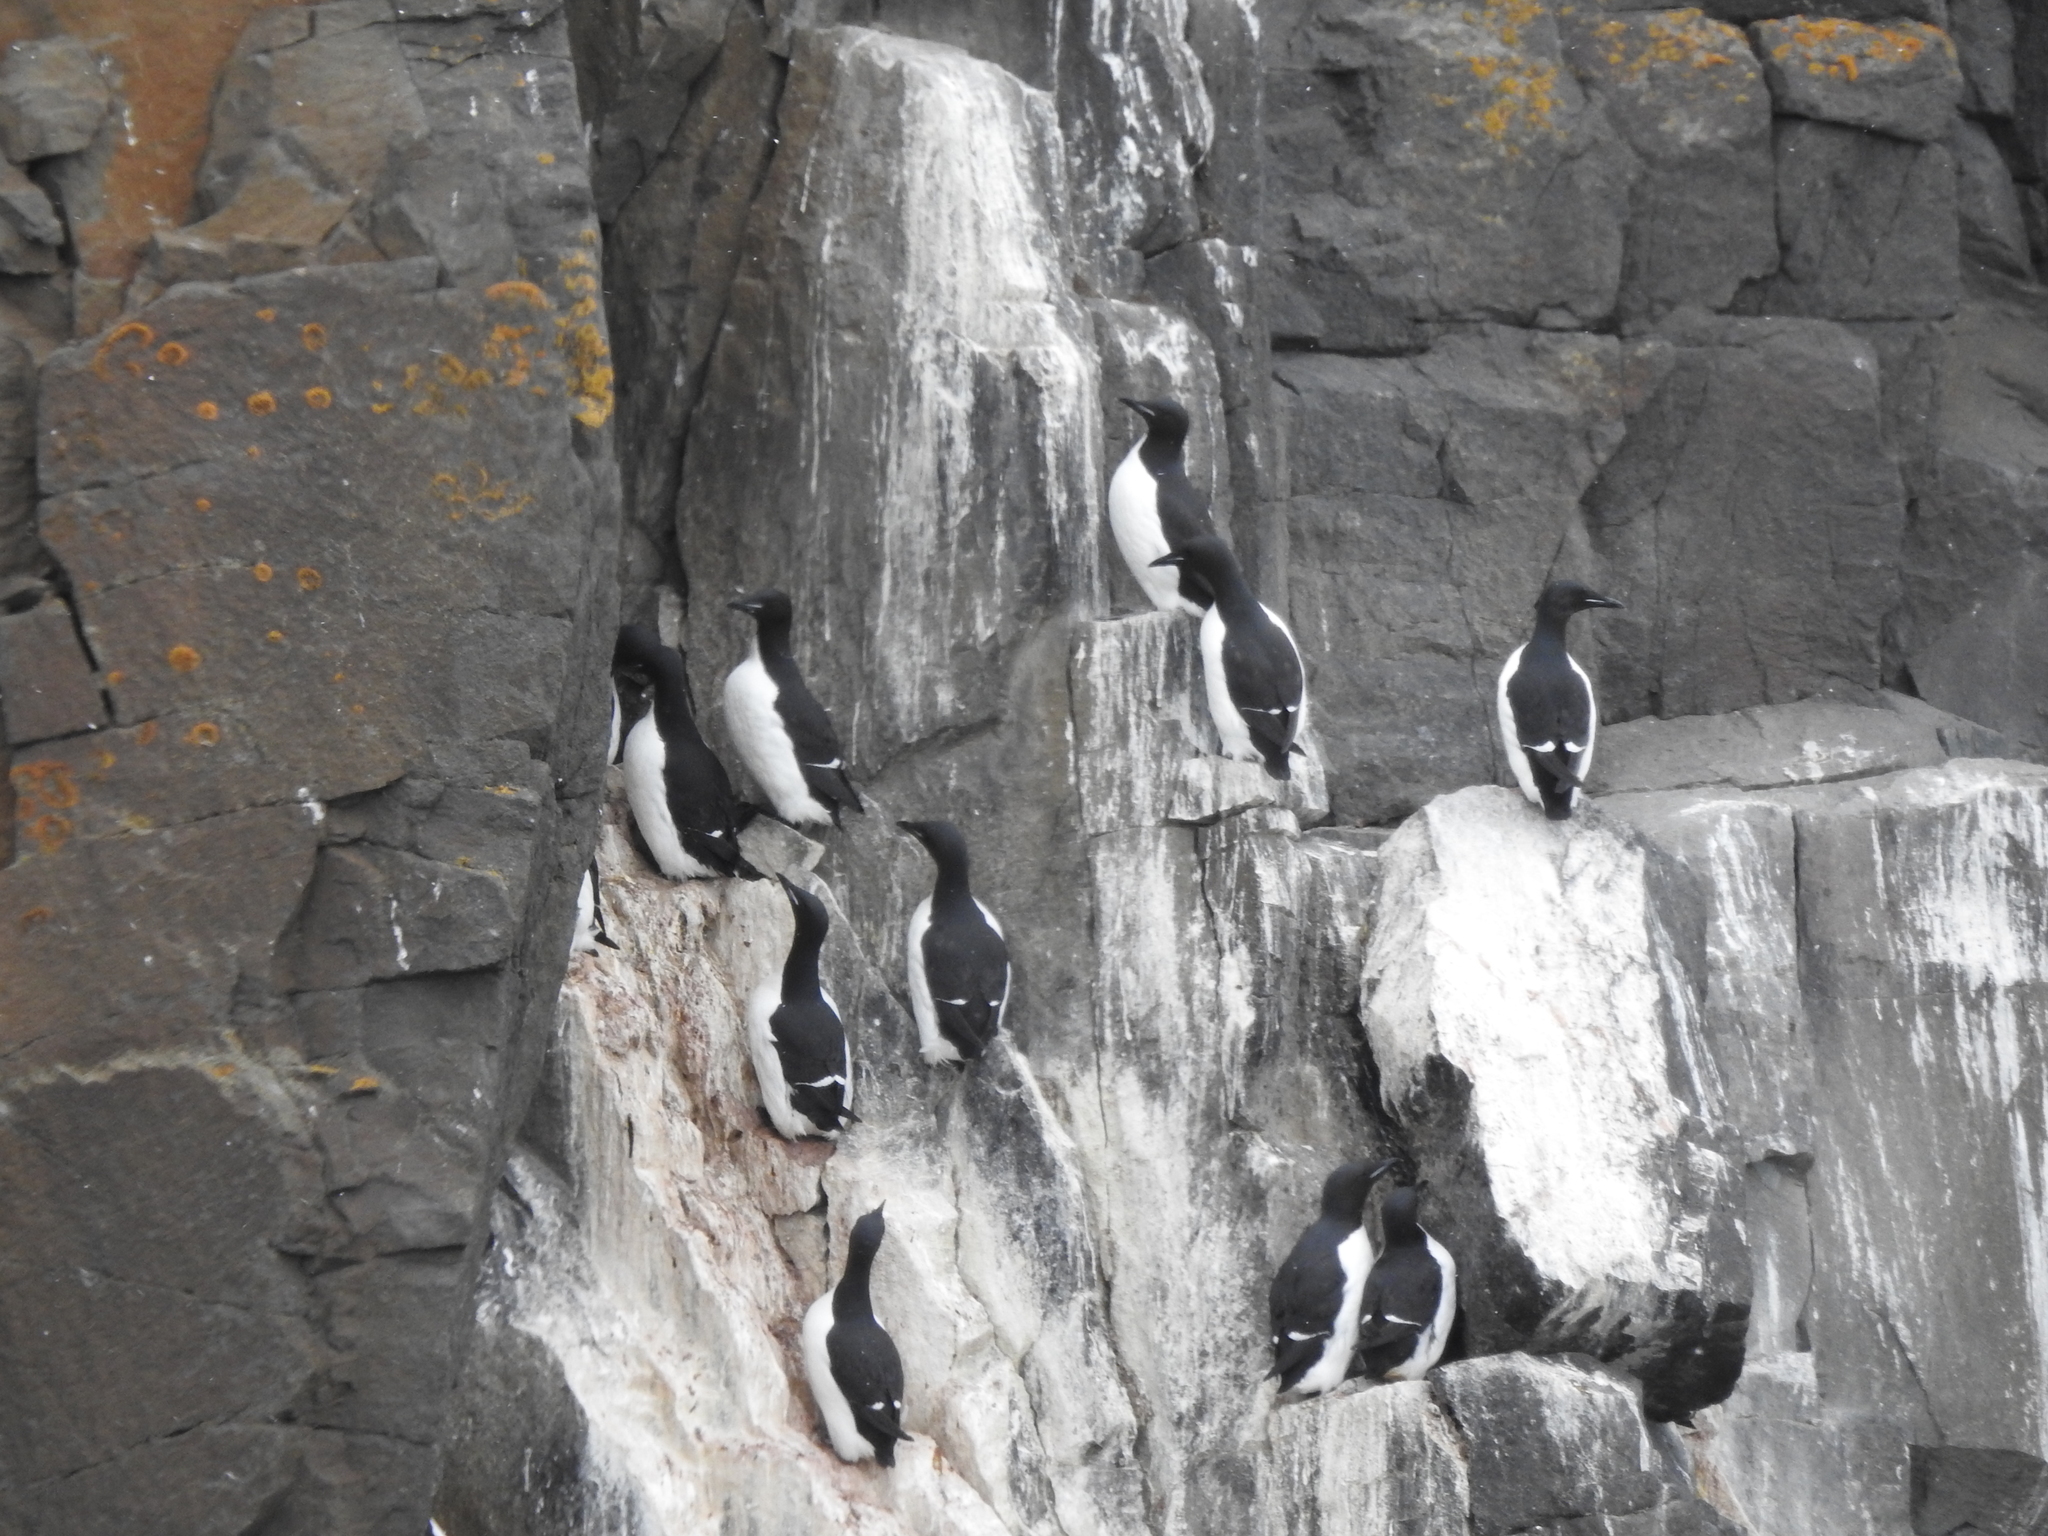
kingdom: Animalia
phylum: Chordata
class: Aves
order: Charadriiformes
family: Alcidae
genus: Uria
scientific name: Uria lomvia
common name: Thick-billed murre
